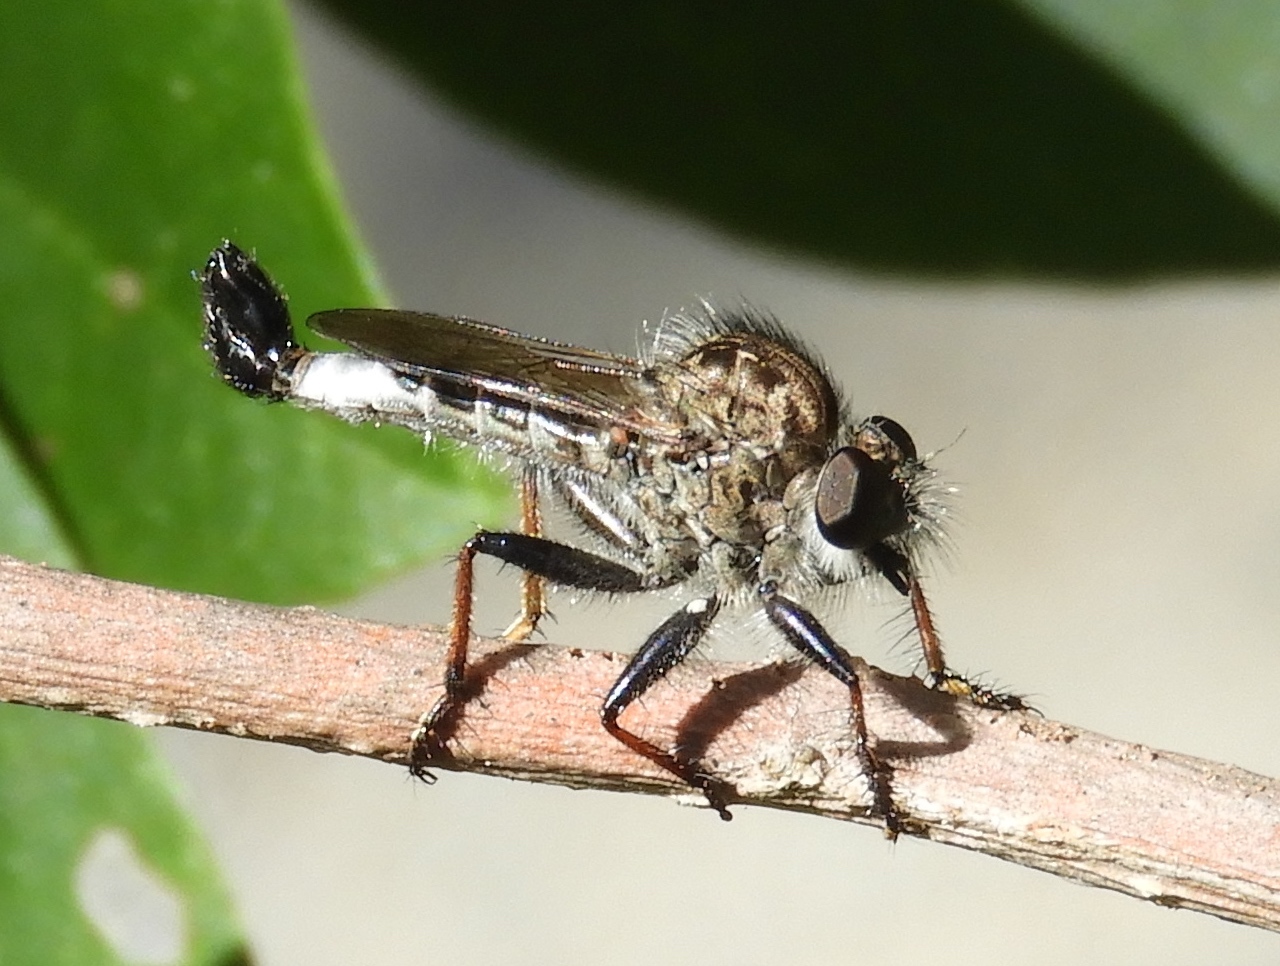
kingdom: Animalia
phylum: Arthropoda
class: Insecta
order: Diptera
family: Asilidae
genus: Efferia
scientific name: Efferia
